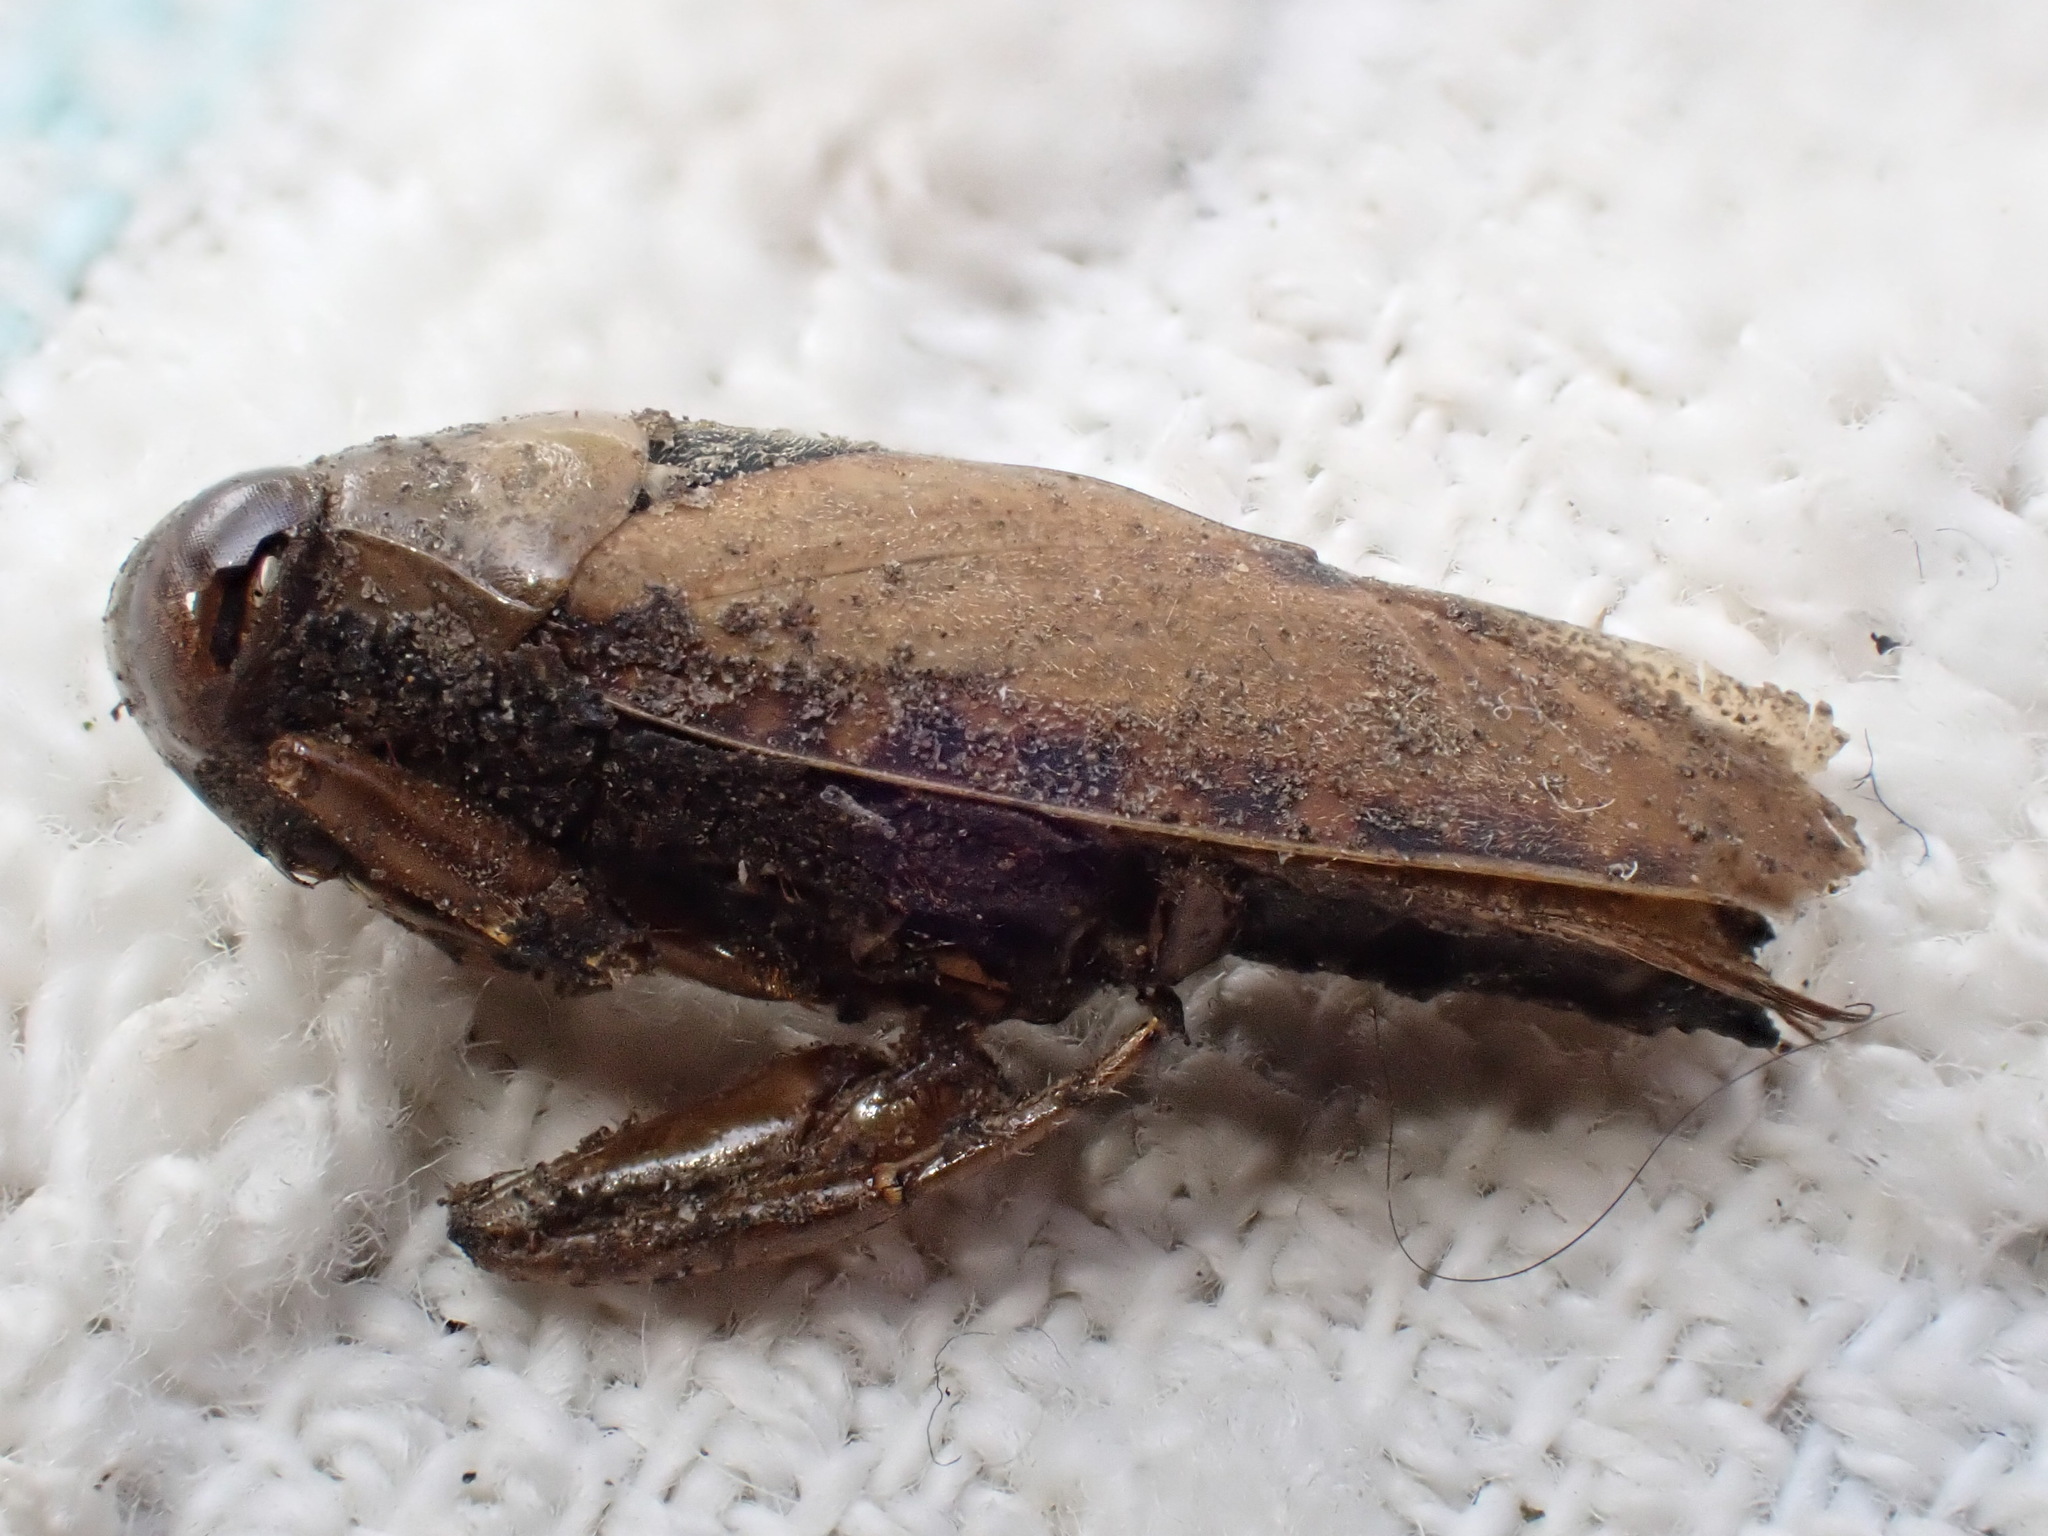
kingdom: Animalia
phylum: Arthropoda
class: Insecta
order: Hemiptera
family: Notonectidae
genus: Notonecta
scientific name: Notonecta glauca
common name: Common water-boatman
